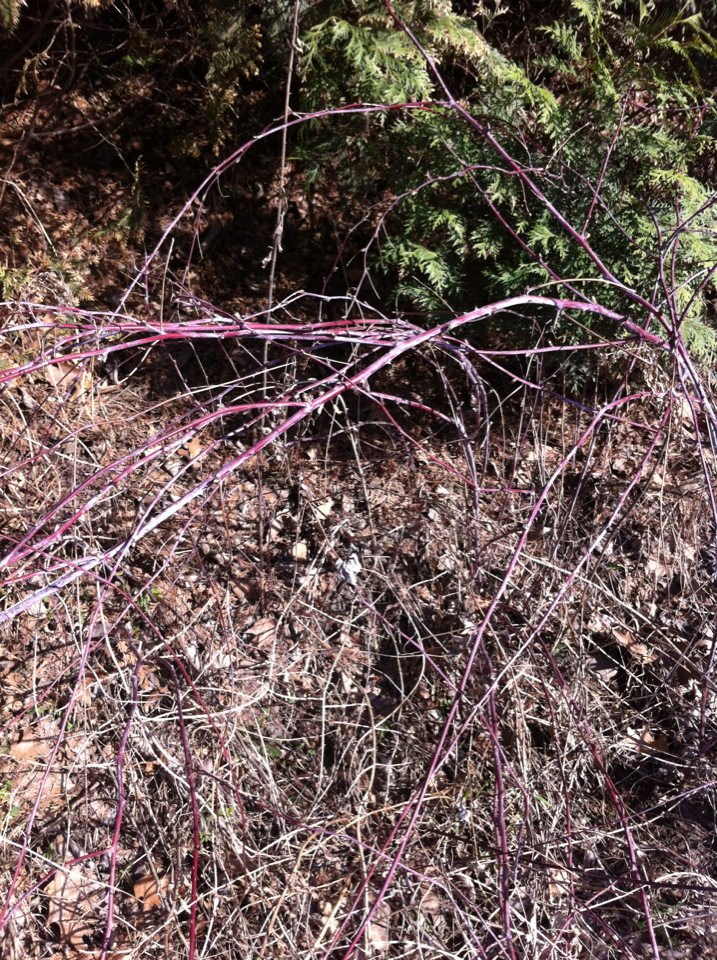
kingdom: Plantae
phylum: Tracheophyta
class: Magnoliopsida
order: Rosales
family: Rosaceae
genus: Rubus
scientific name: Rubus occidentalis
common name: Black raspberry
